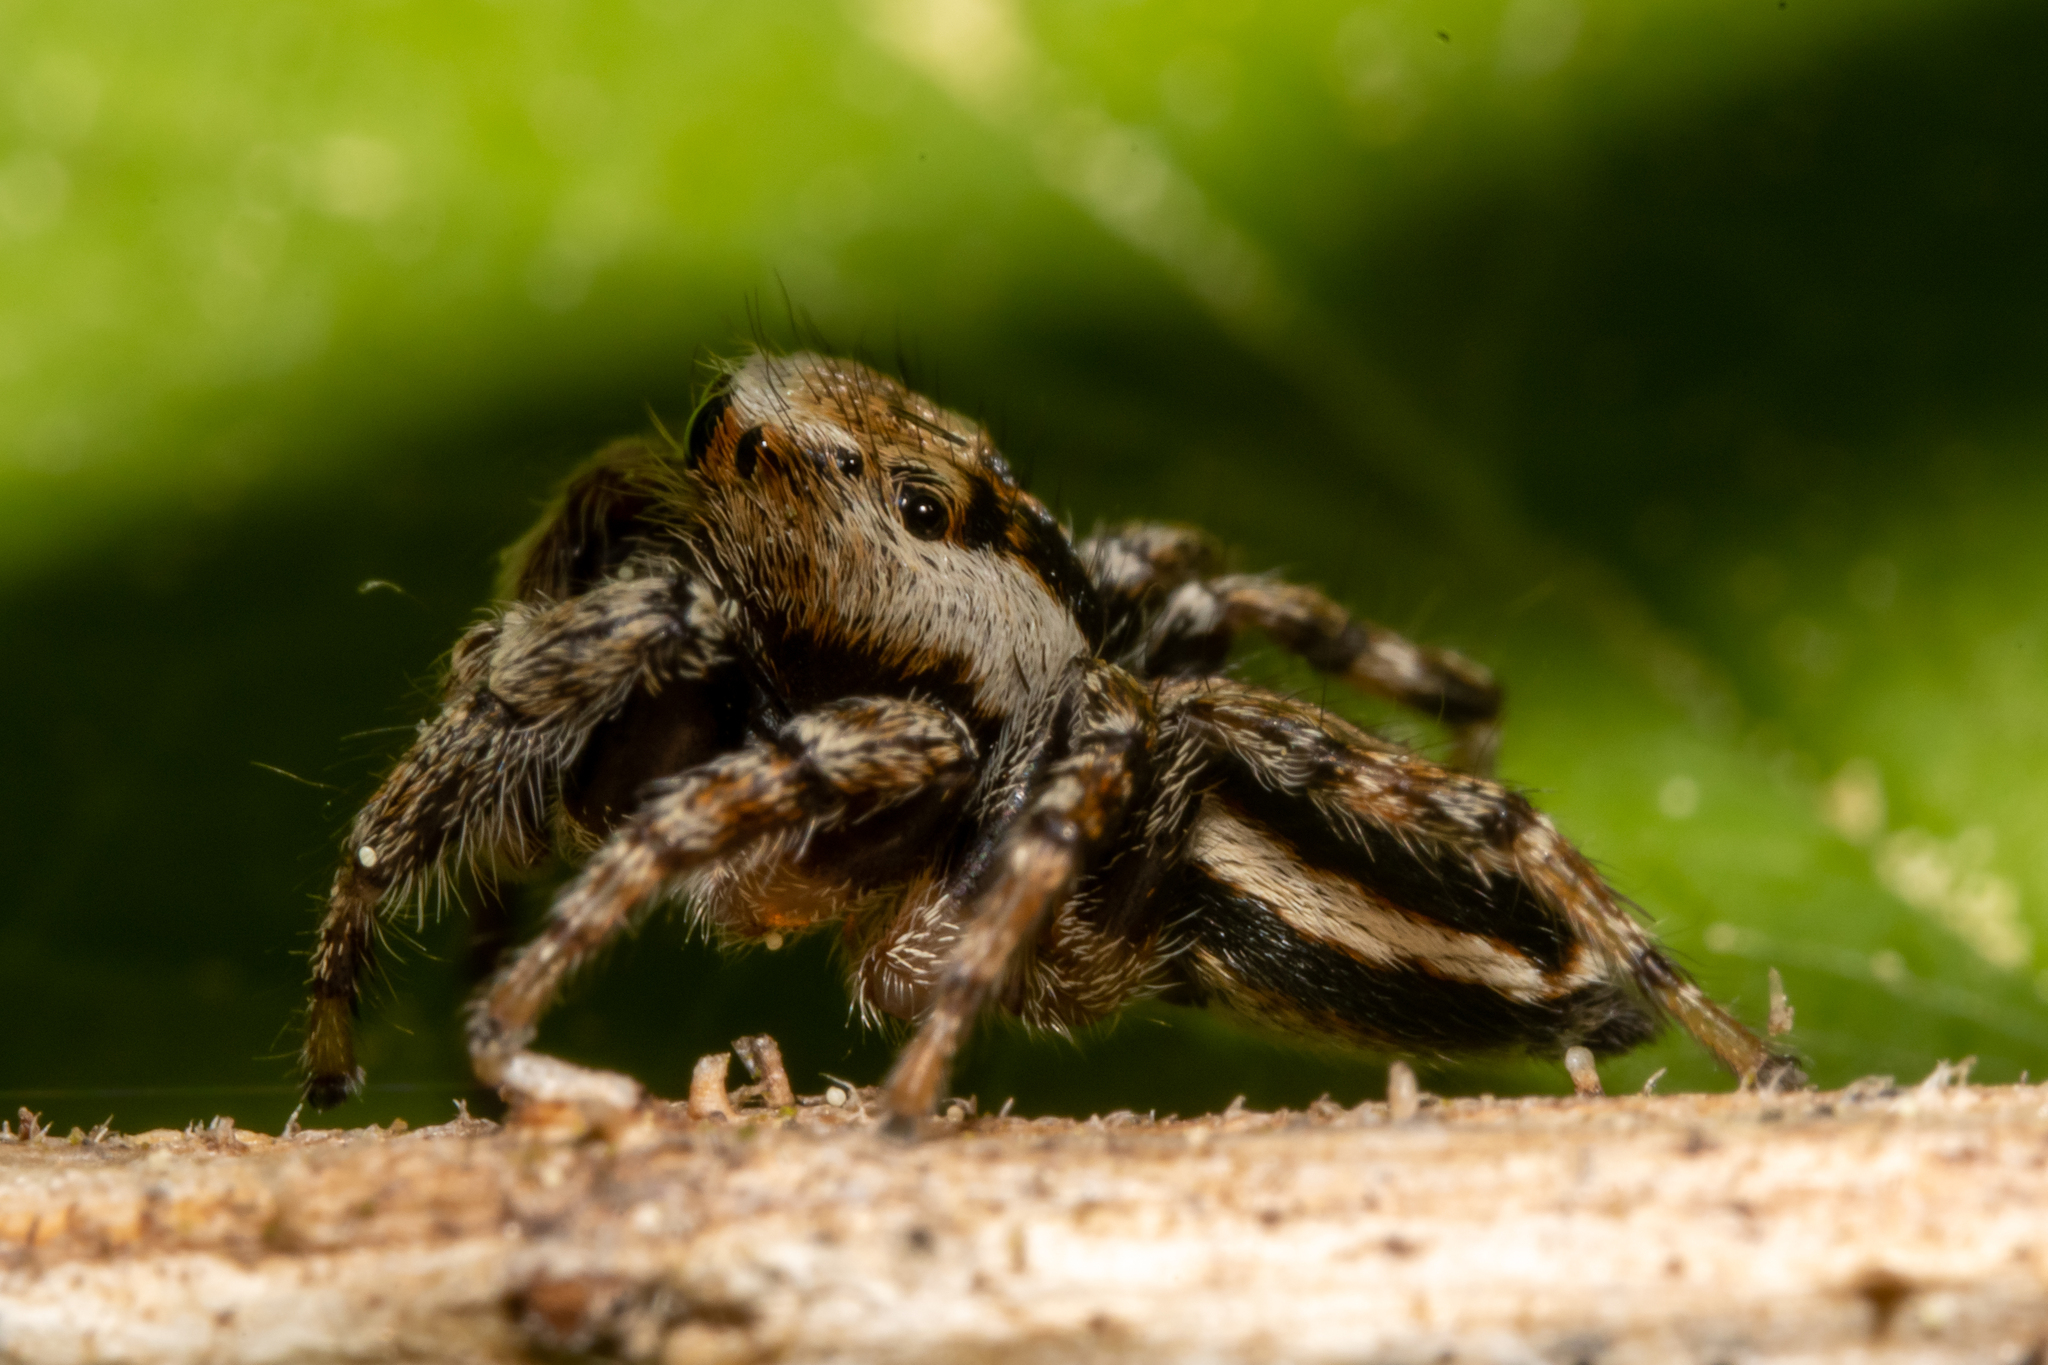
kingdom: Animalia
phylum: Arthropoda
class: Arachnida
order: Araneae
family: Salticidae
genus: Evarcha
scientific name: Evarcha falcata
